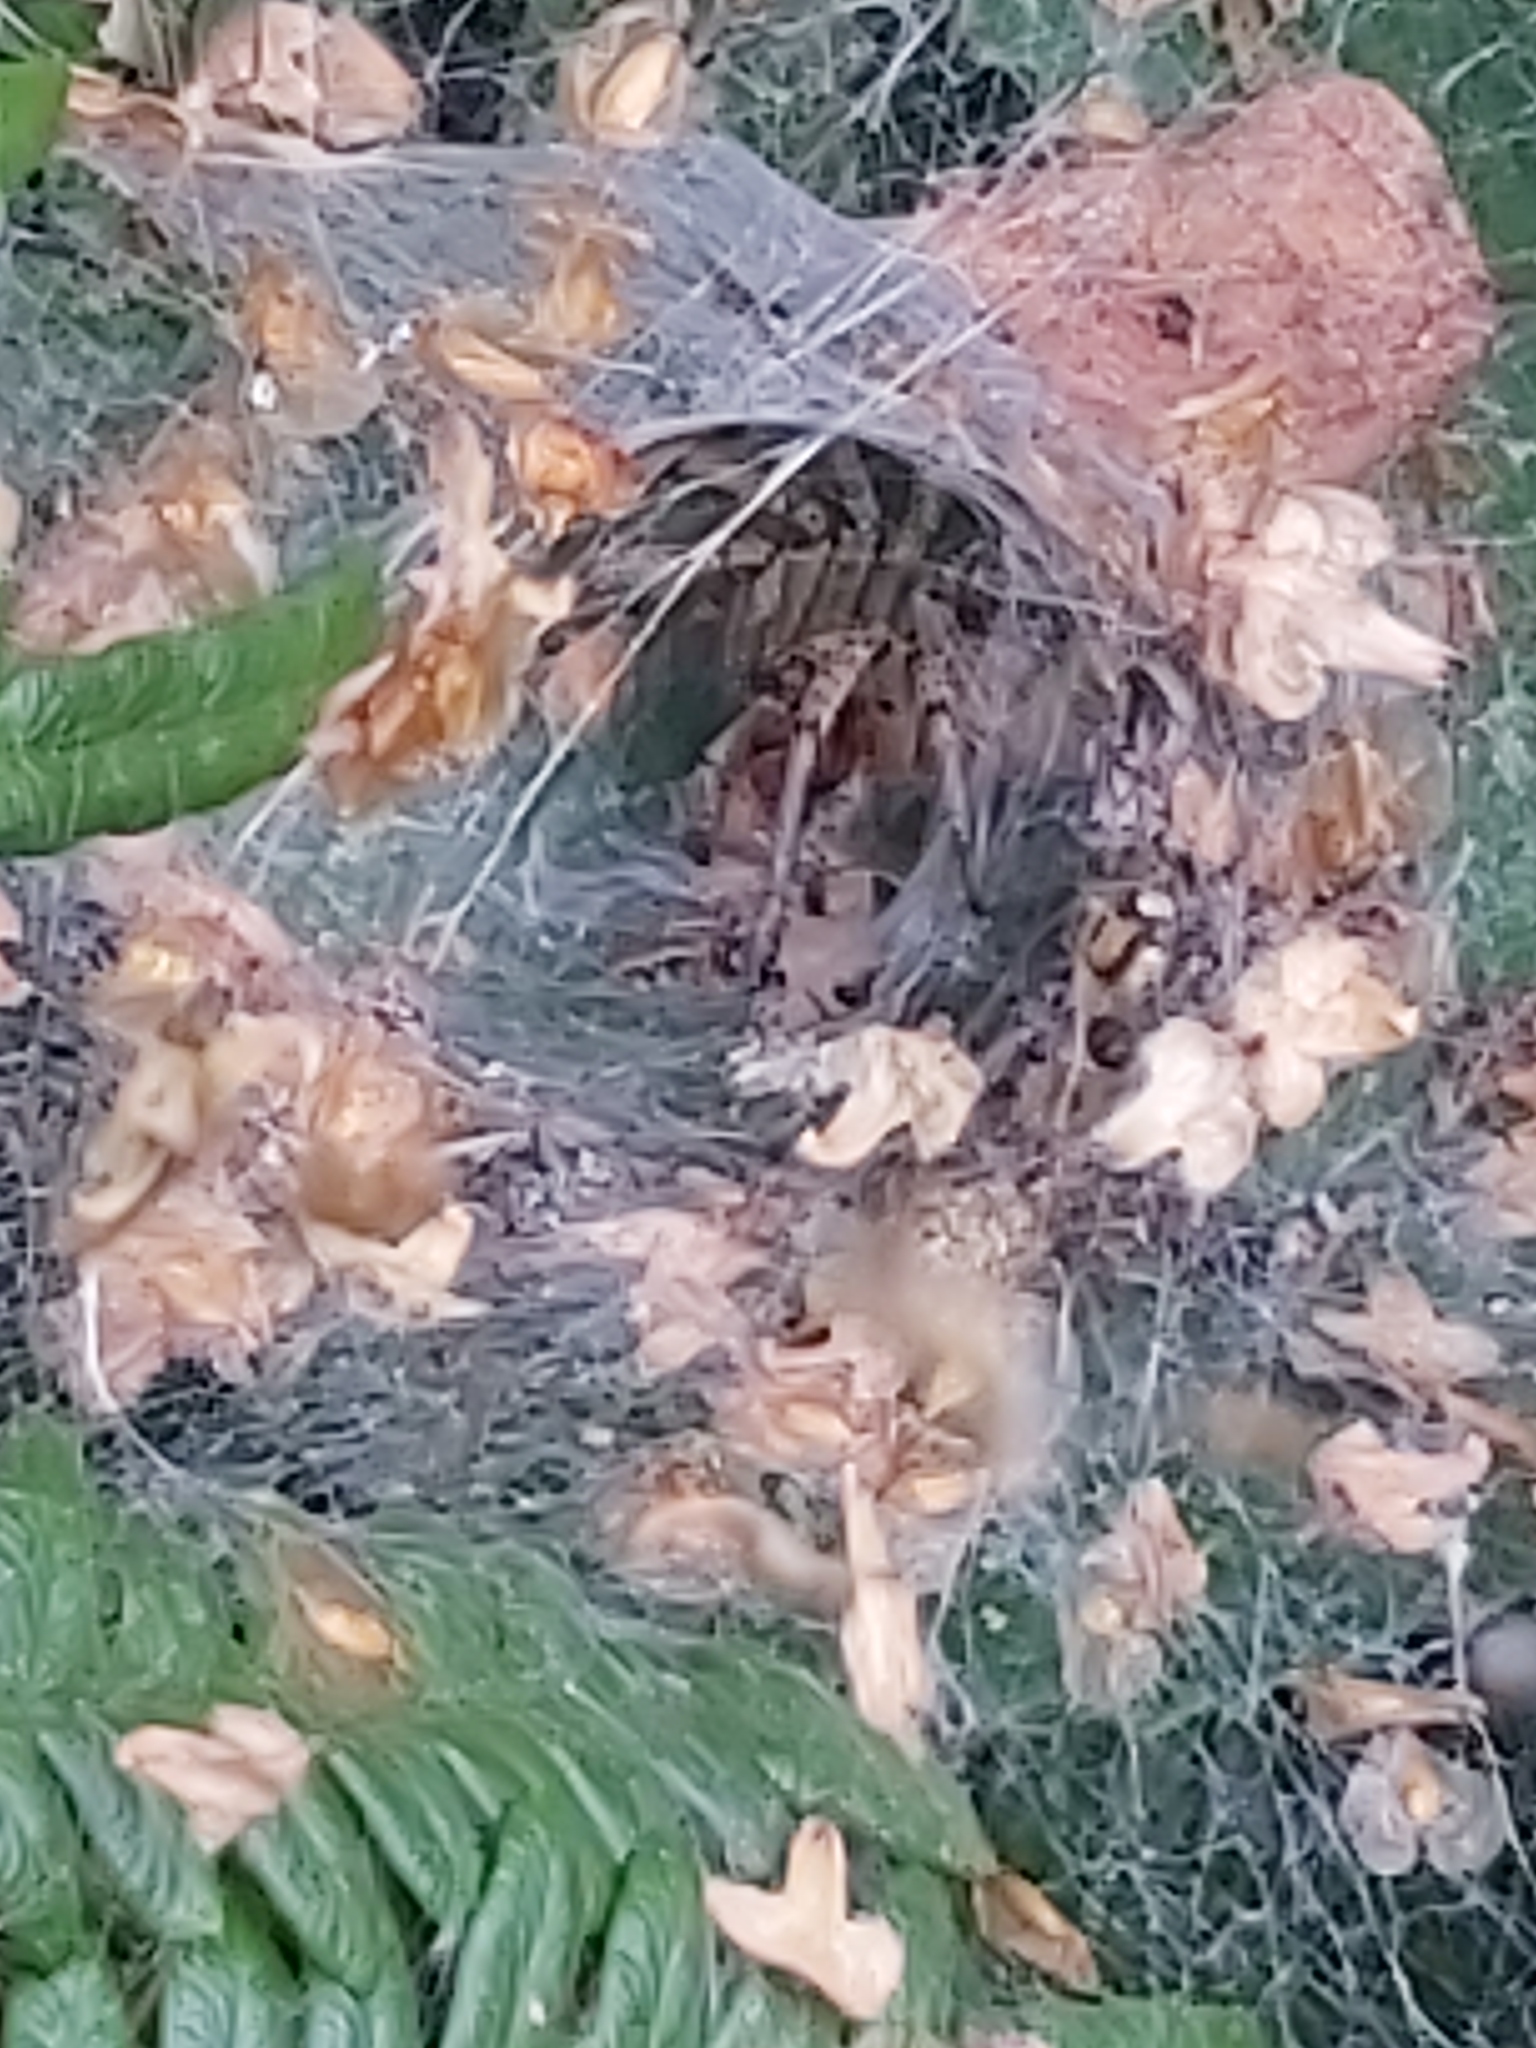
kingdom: Animalia
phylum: Arthropoda
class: Arachnida
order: Araneae
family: Agelenidae
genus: Agelena
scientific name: Agelena labyrinthica
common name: Labyrinth spider
